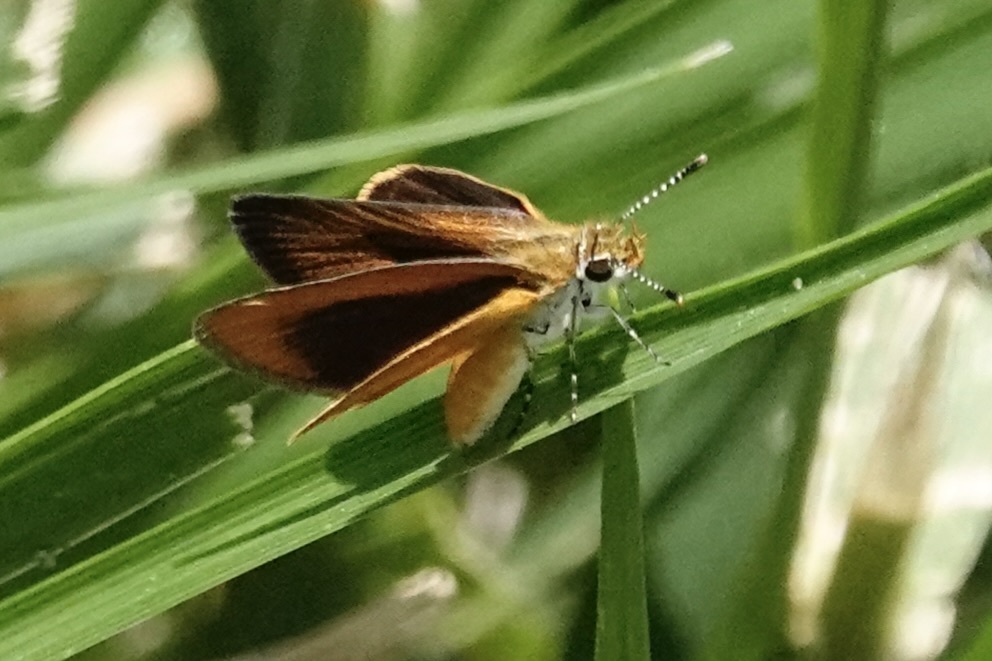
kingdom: Animalia
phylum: Arthropoda
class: Insecta
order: Lepidoptera
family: Hesperiidae
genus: Ancyloxypha
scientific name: Ancyloxypha numitor
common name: Least skipper
